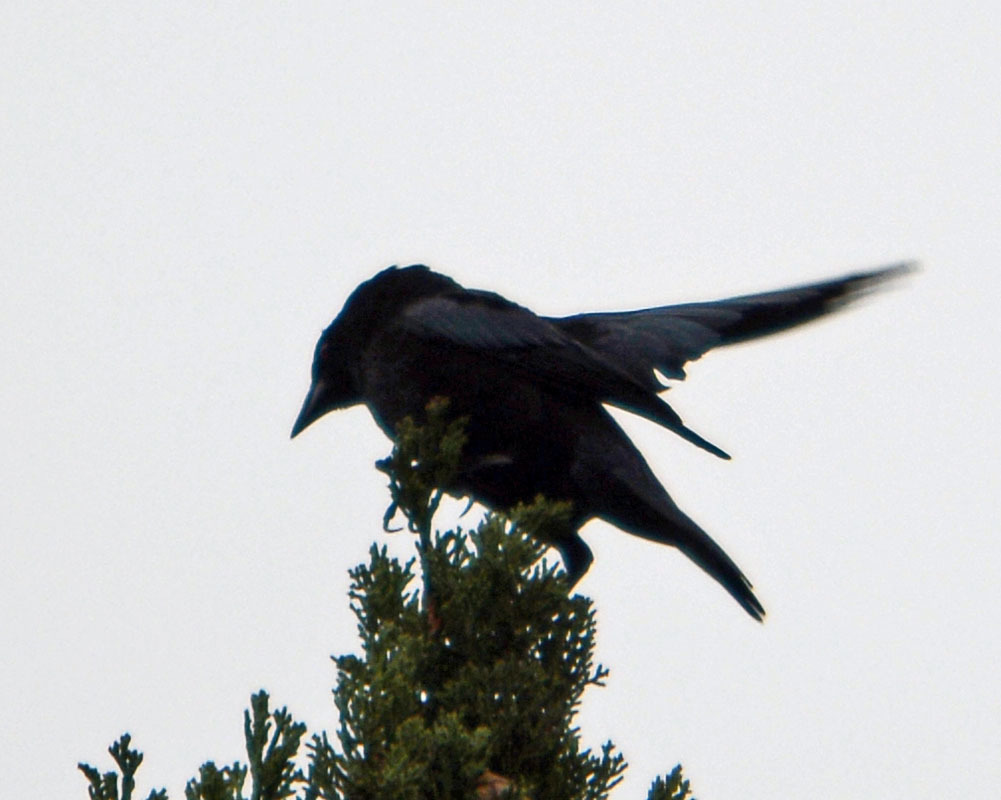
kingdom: Animalia
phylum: Chordata
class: Aves
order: Passeriformes
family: Icteridae
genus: Molothrus
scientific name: Molothrus aeneus
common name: Bronzed cowbird
